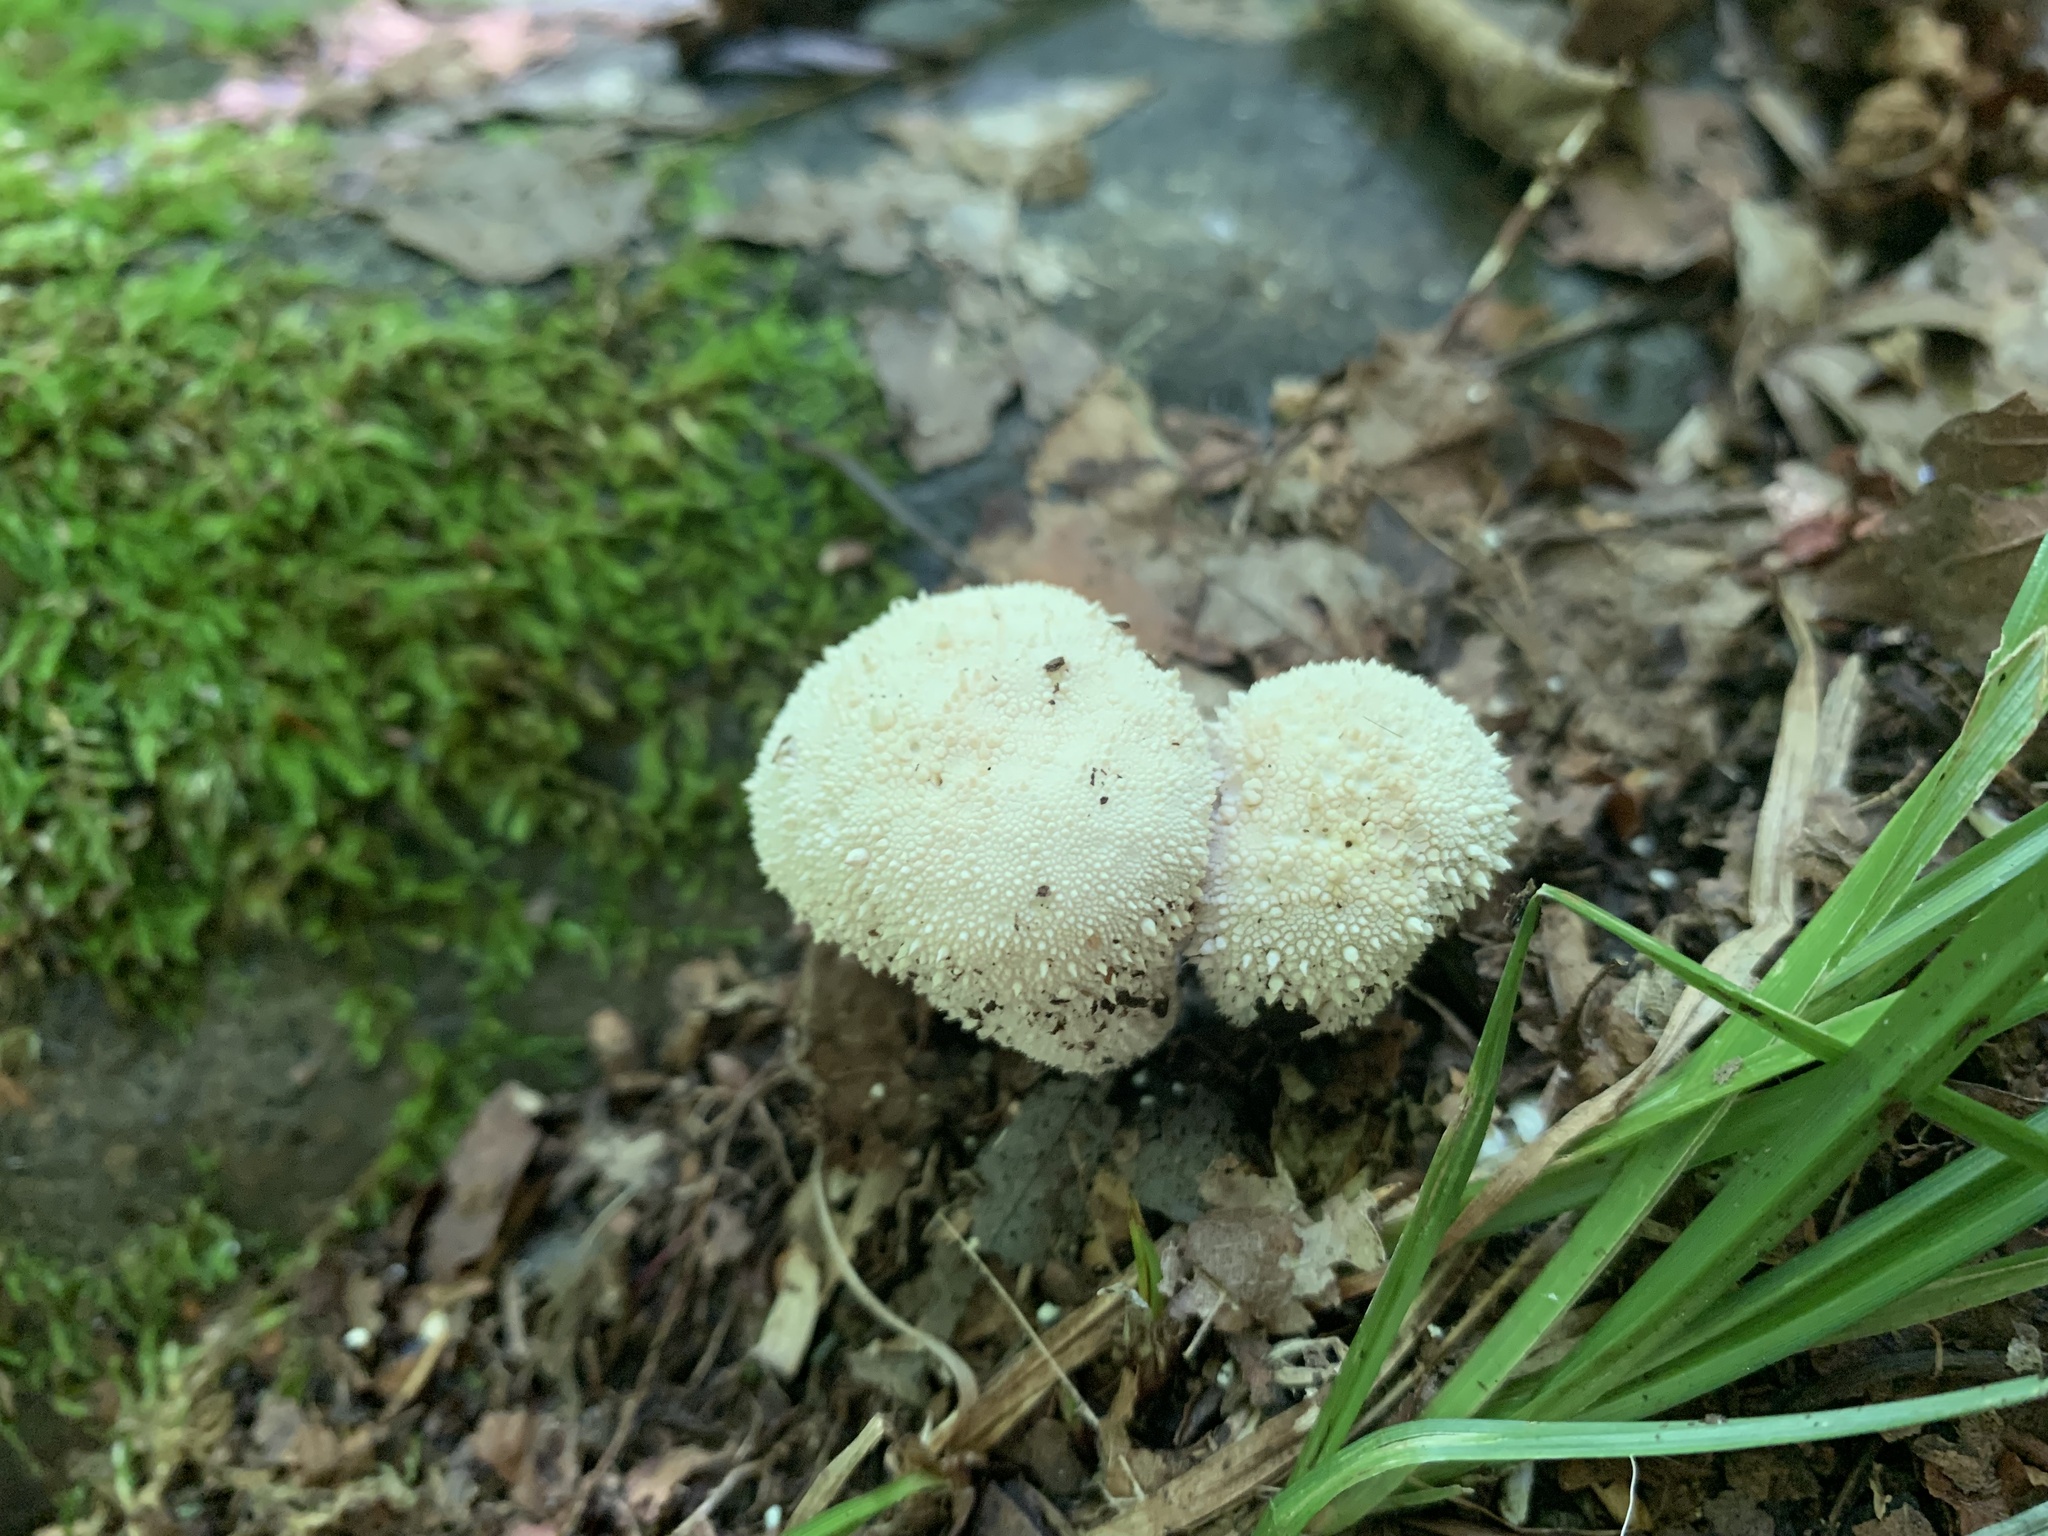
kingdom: Fungi
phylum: Basidiomycota
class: Agaricomycetes
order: Agaricales
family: Lycoperdaceae
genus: Lycoperdon
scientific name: Lycoperdon perlatum
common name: Common puffball
